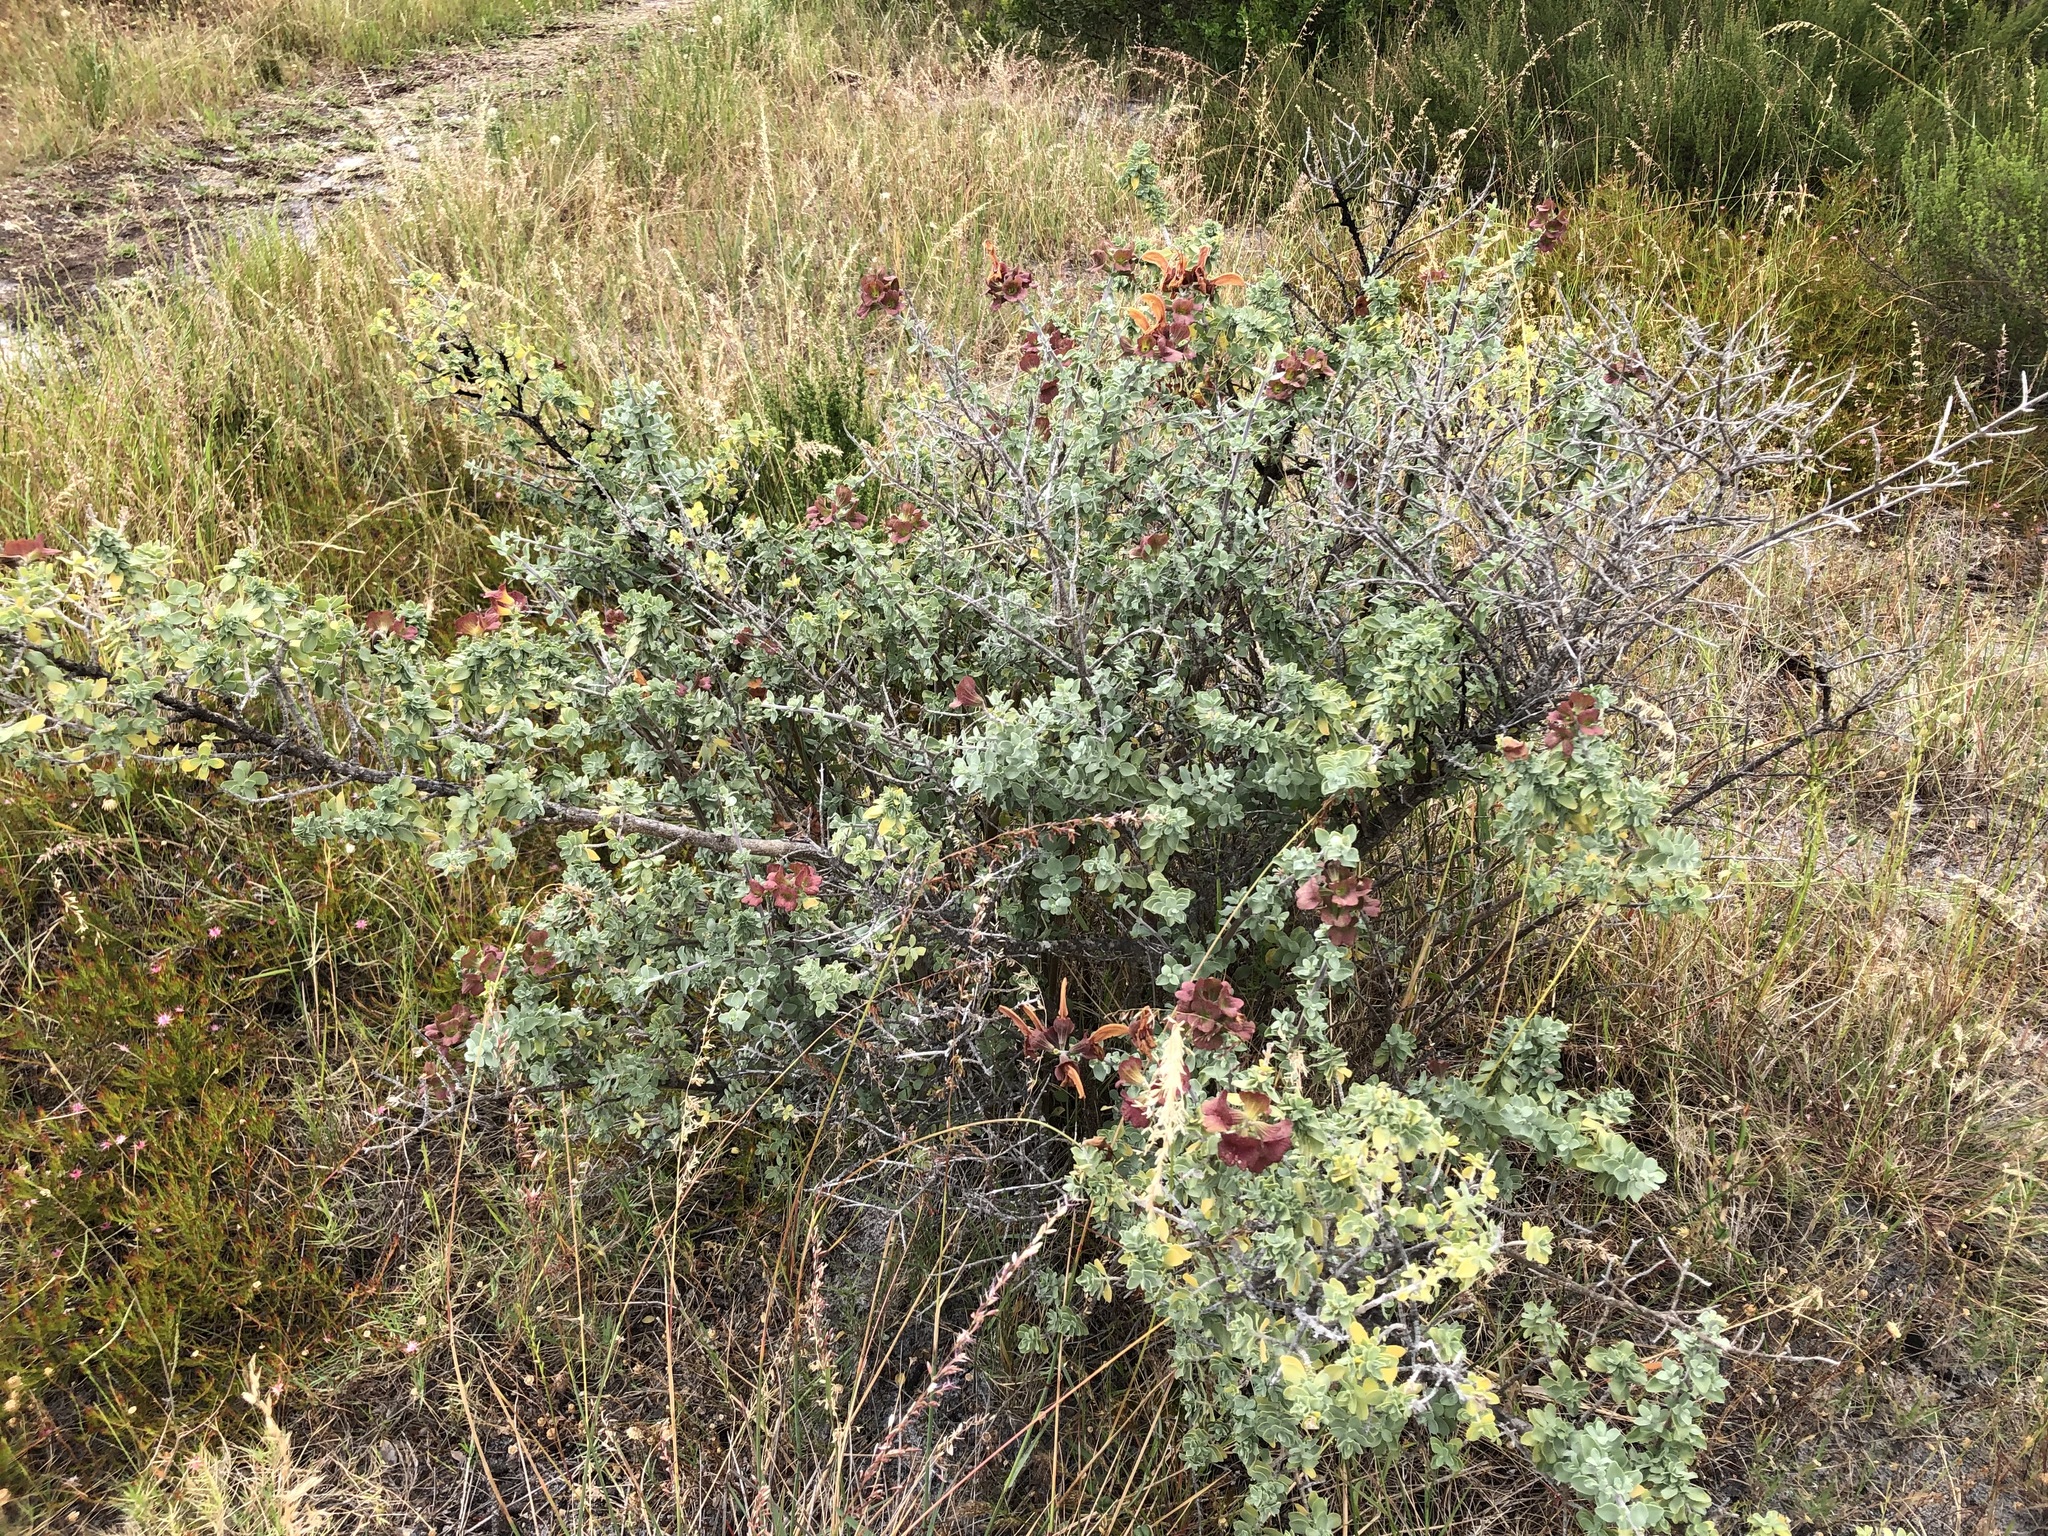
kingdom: Plantae
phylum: Tracheophyta
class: Magnoliopsida
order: Lamiales
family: Lamiaceae
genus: Salvia
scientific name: Salvia aurea
